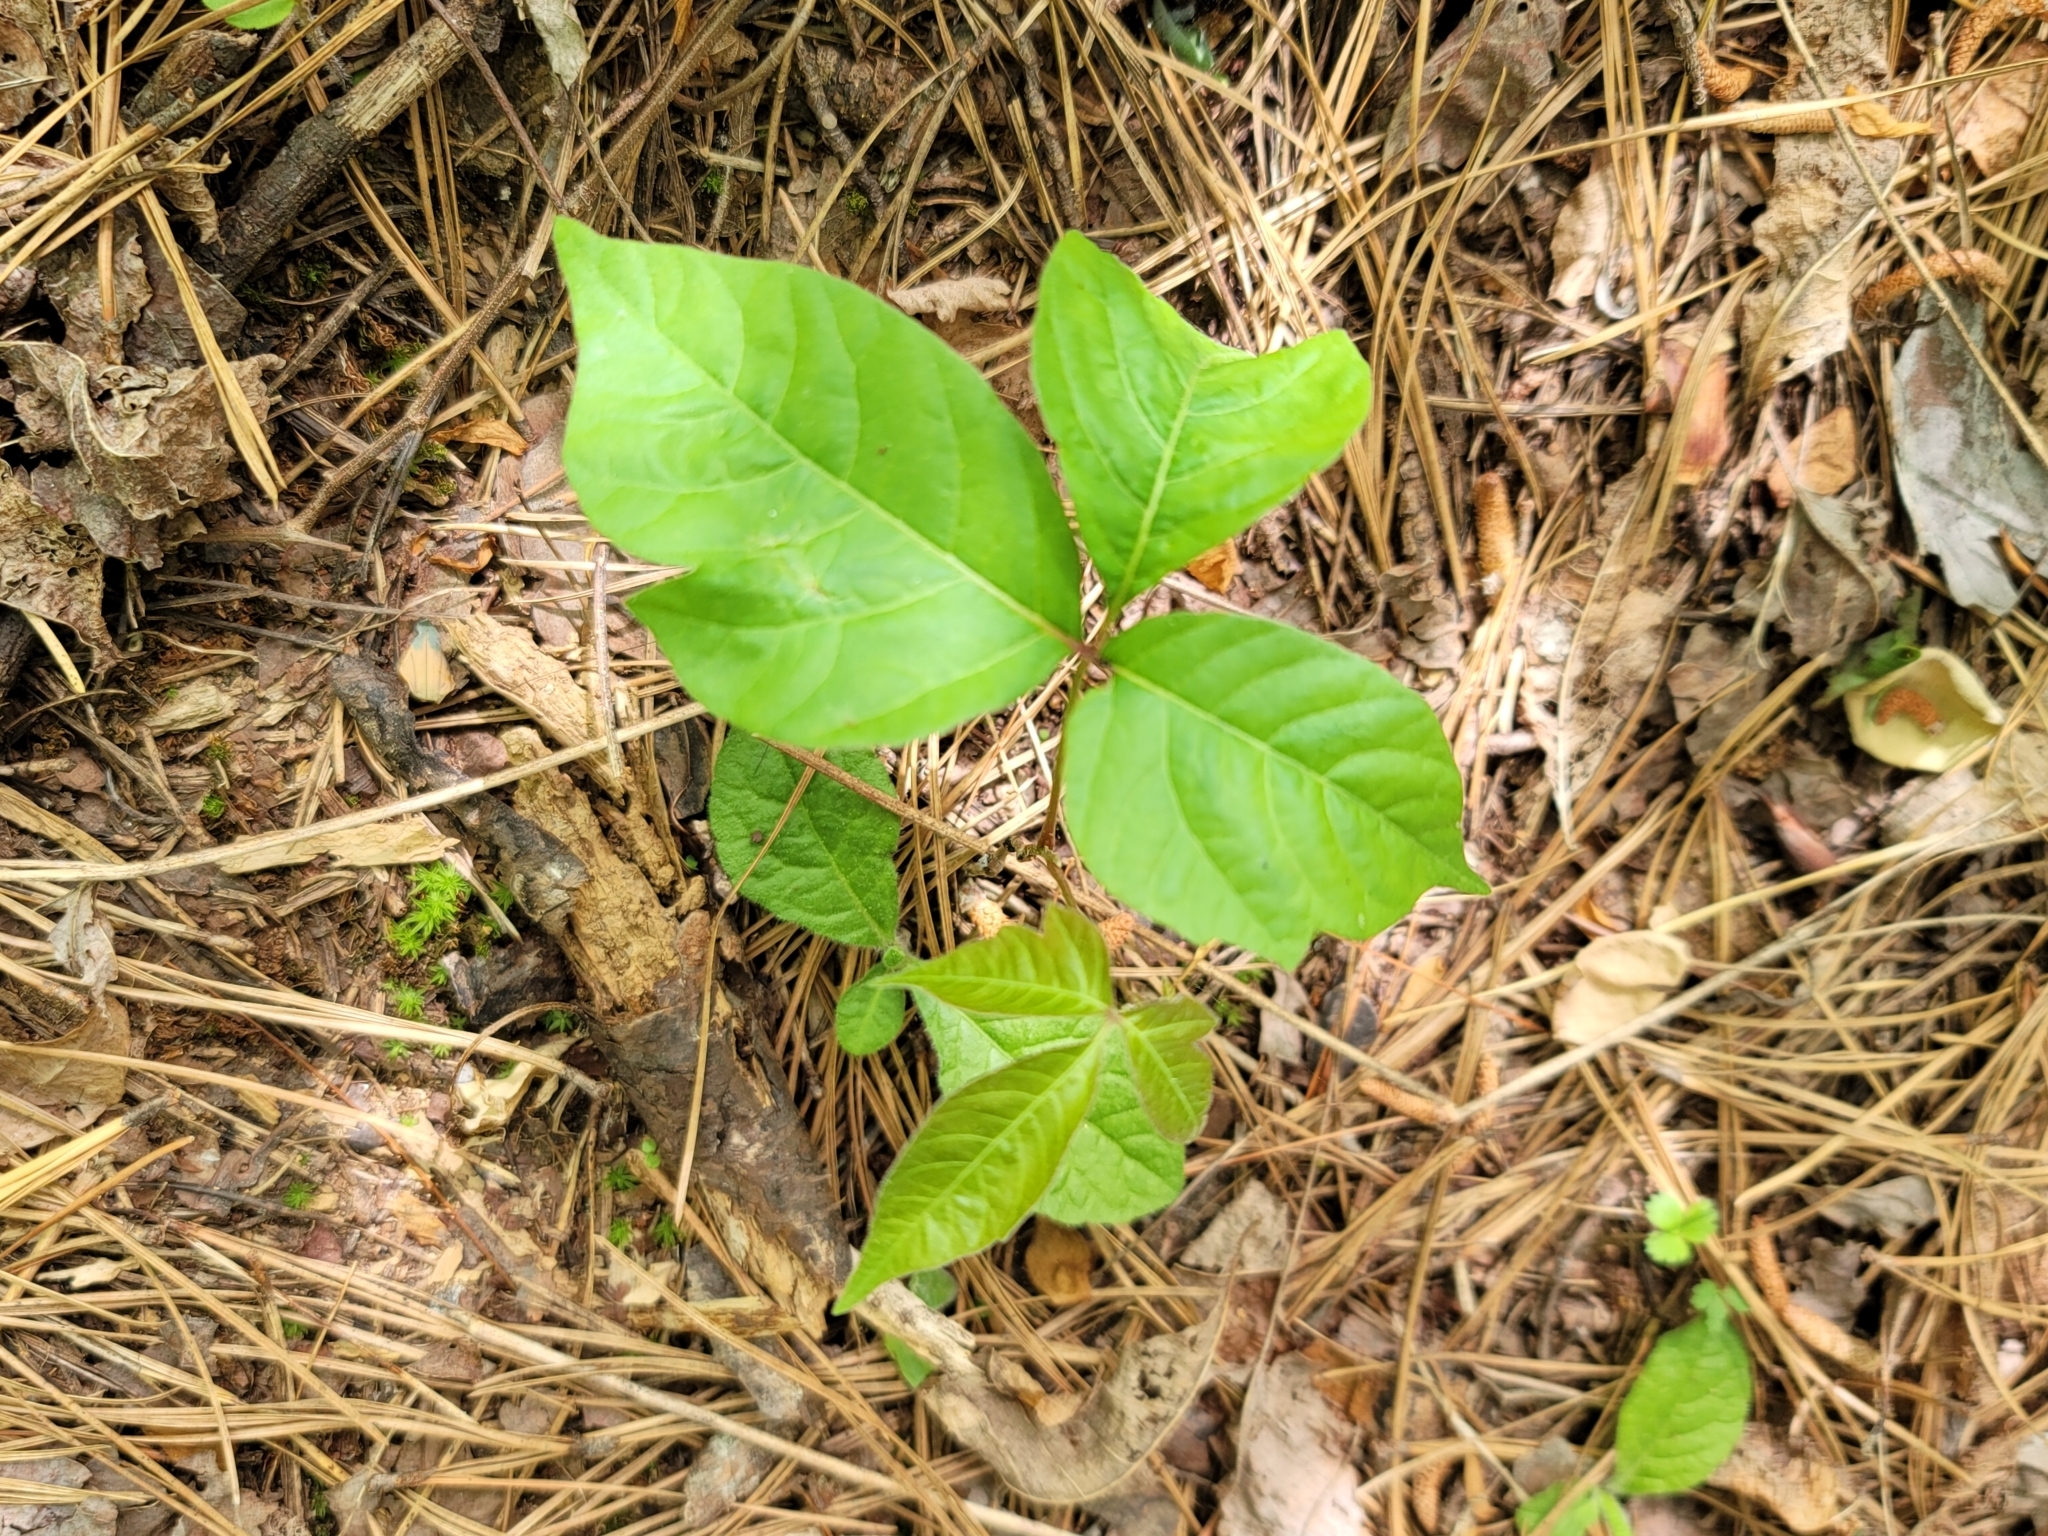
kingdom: Plantae
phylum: Tracheophyta
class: Magnoliopsida
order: Sapindales
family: Anacardiaceae
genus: Toxicodendron
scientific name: Toxicodendron radicans
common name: Poison ivy
